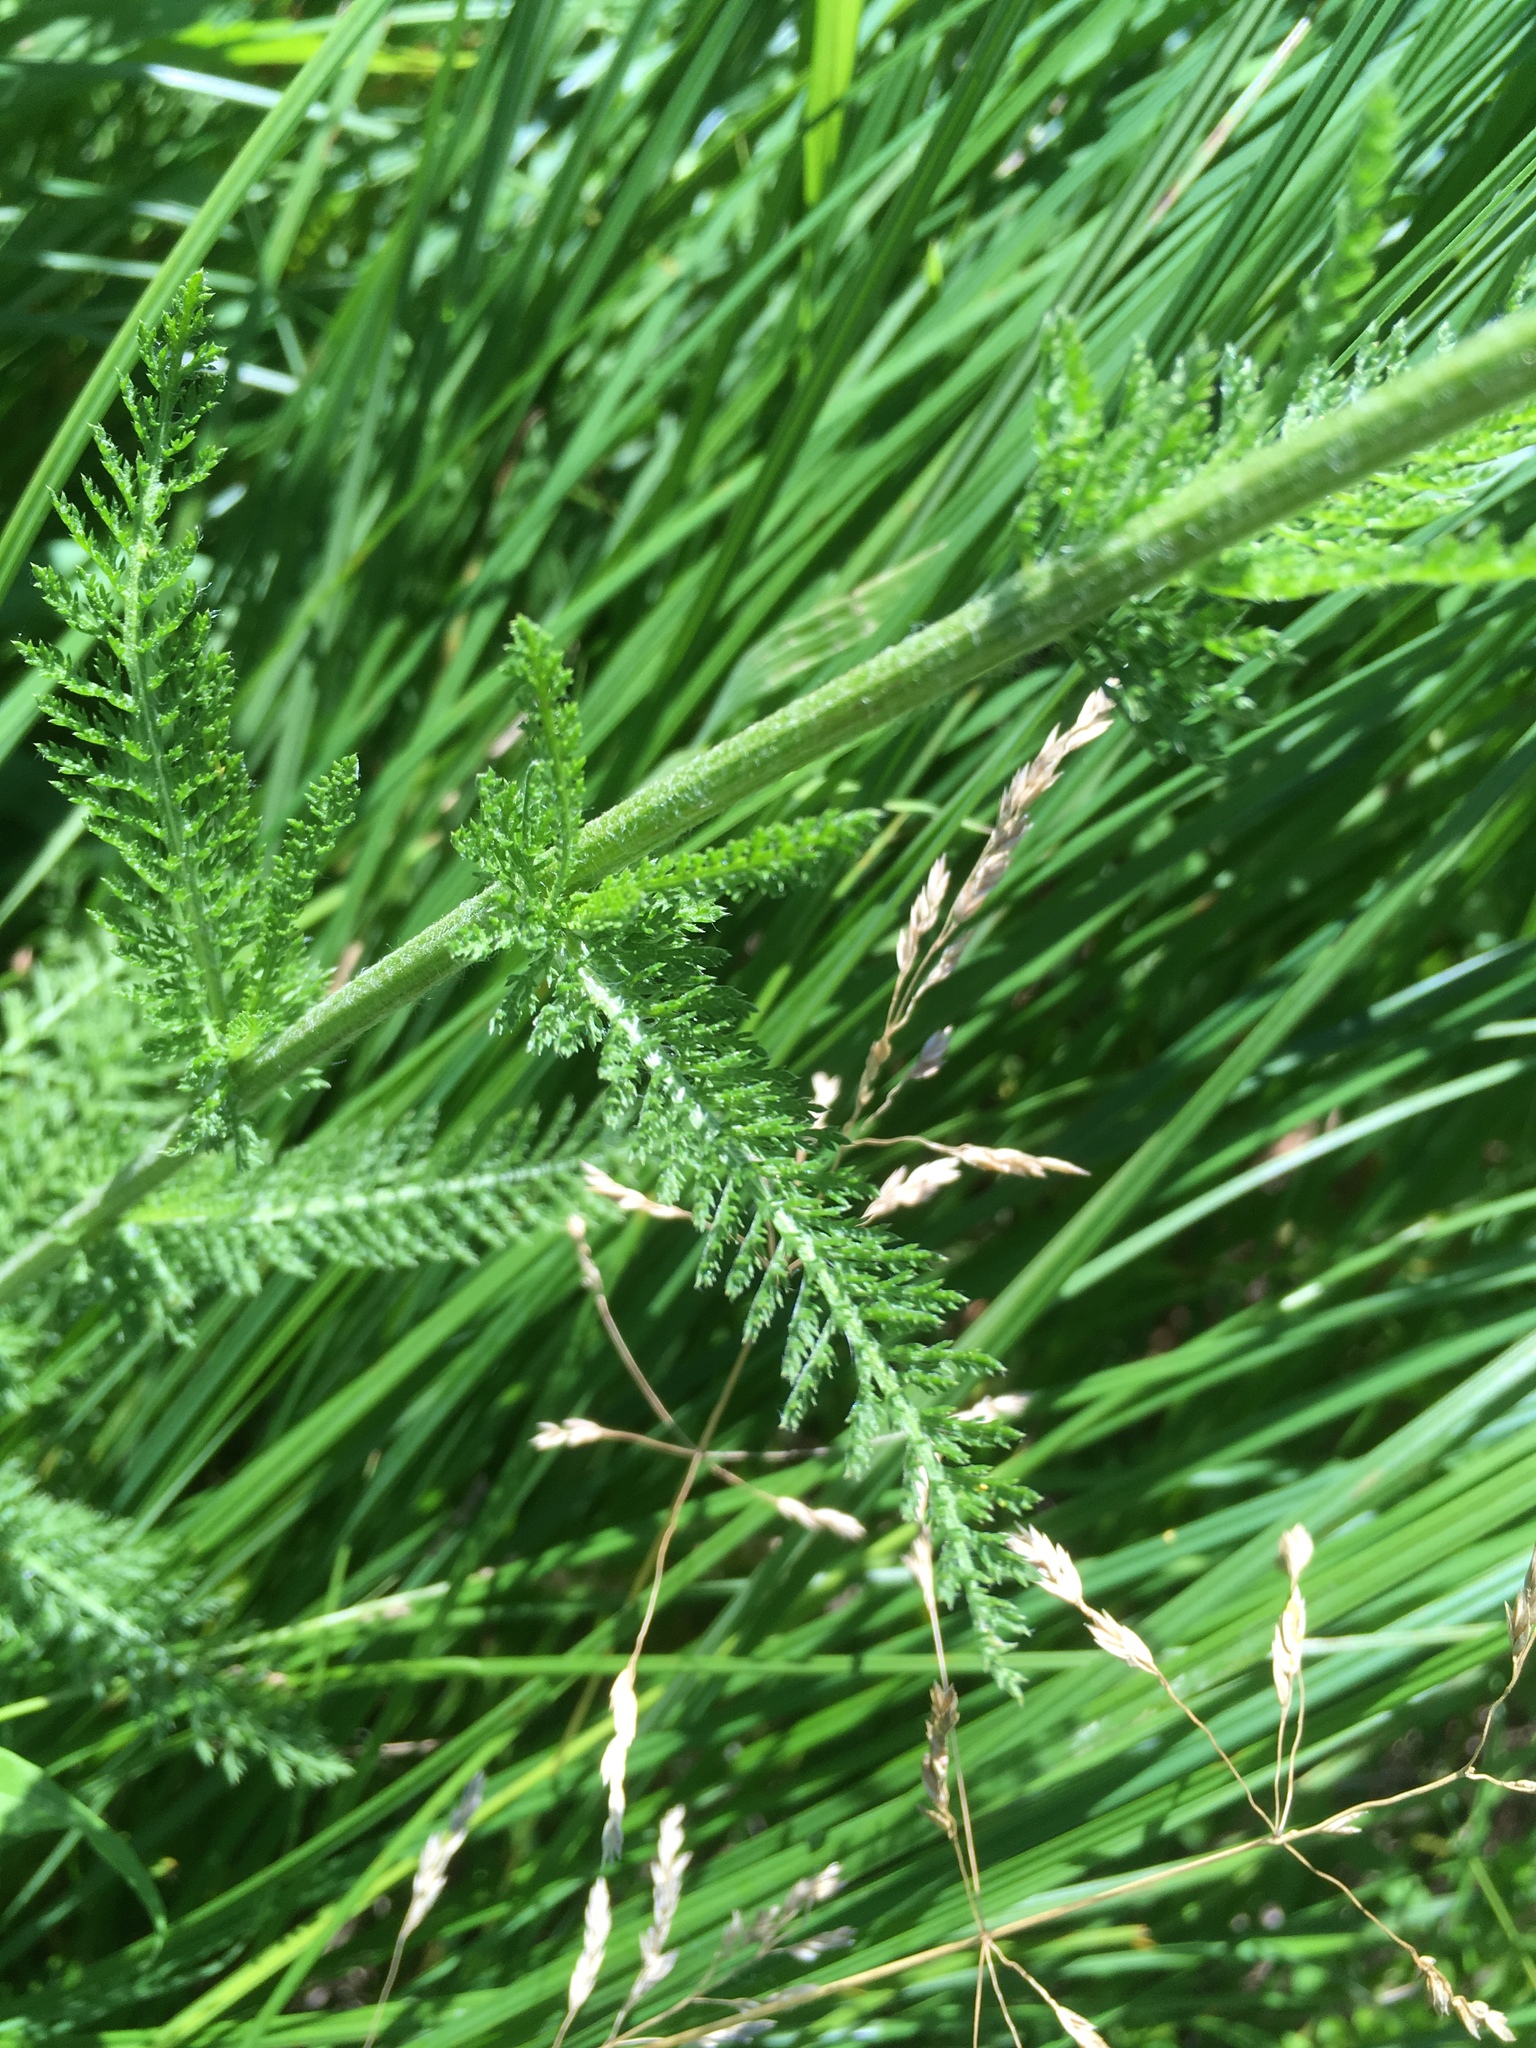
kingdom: Plantae
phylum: Tracheophyta
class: Magnoliopsida
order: Asterales
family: Asteraceae
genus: Achillea
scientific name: Achillea millefolium
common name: Yarrow
